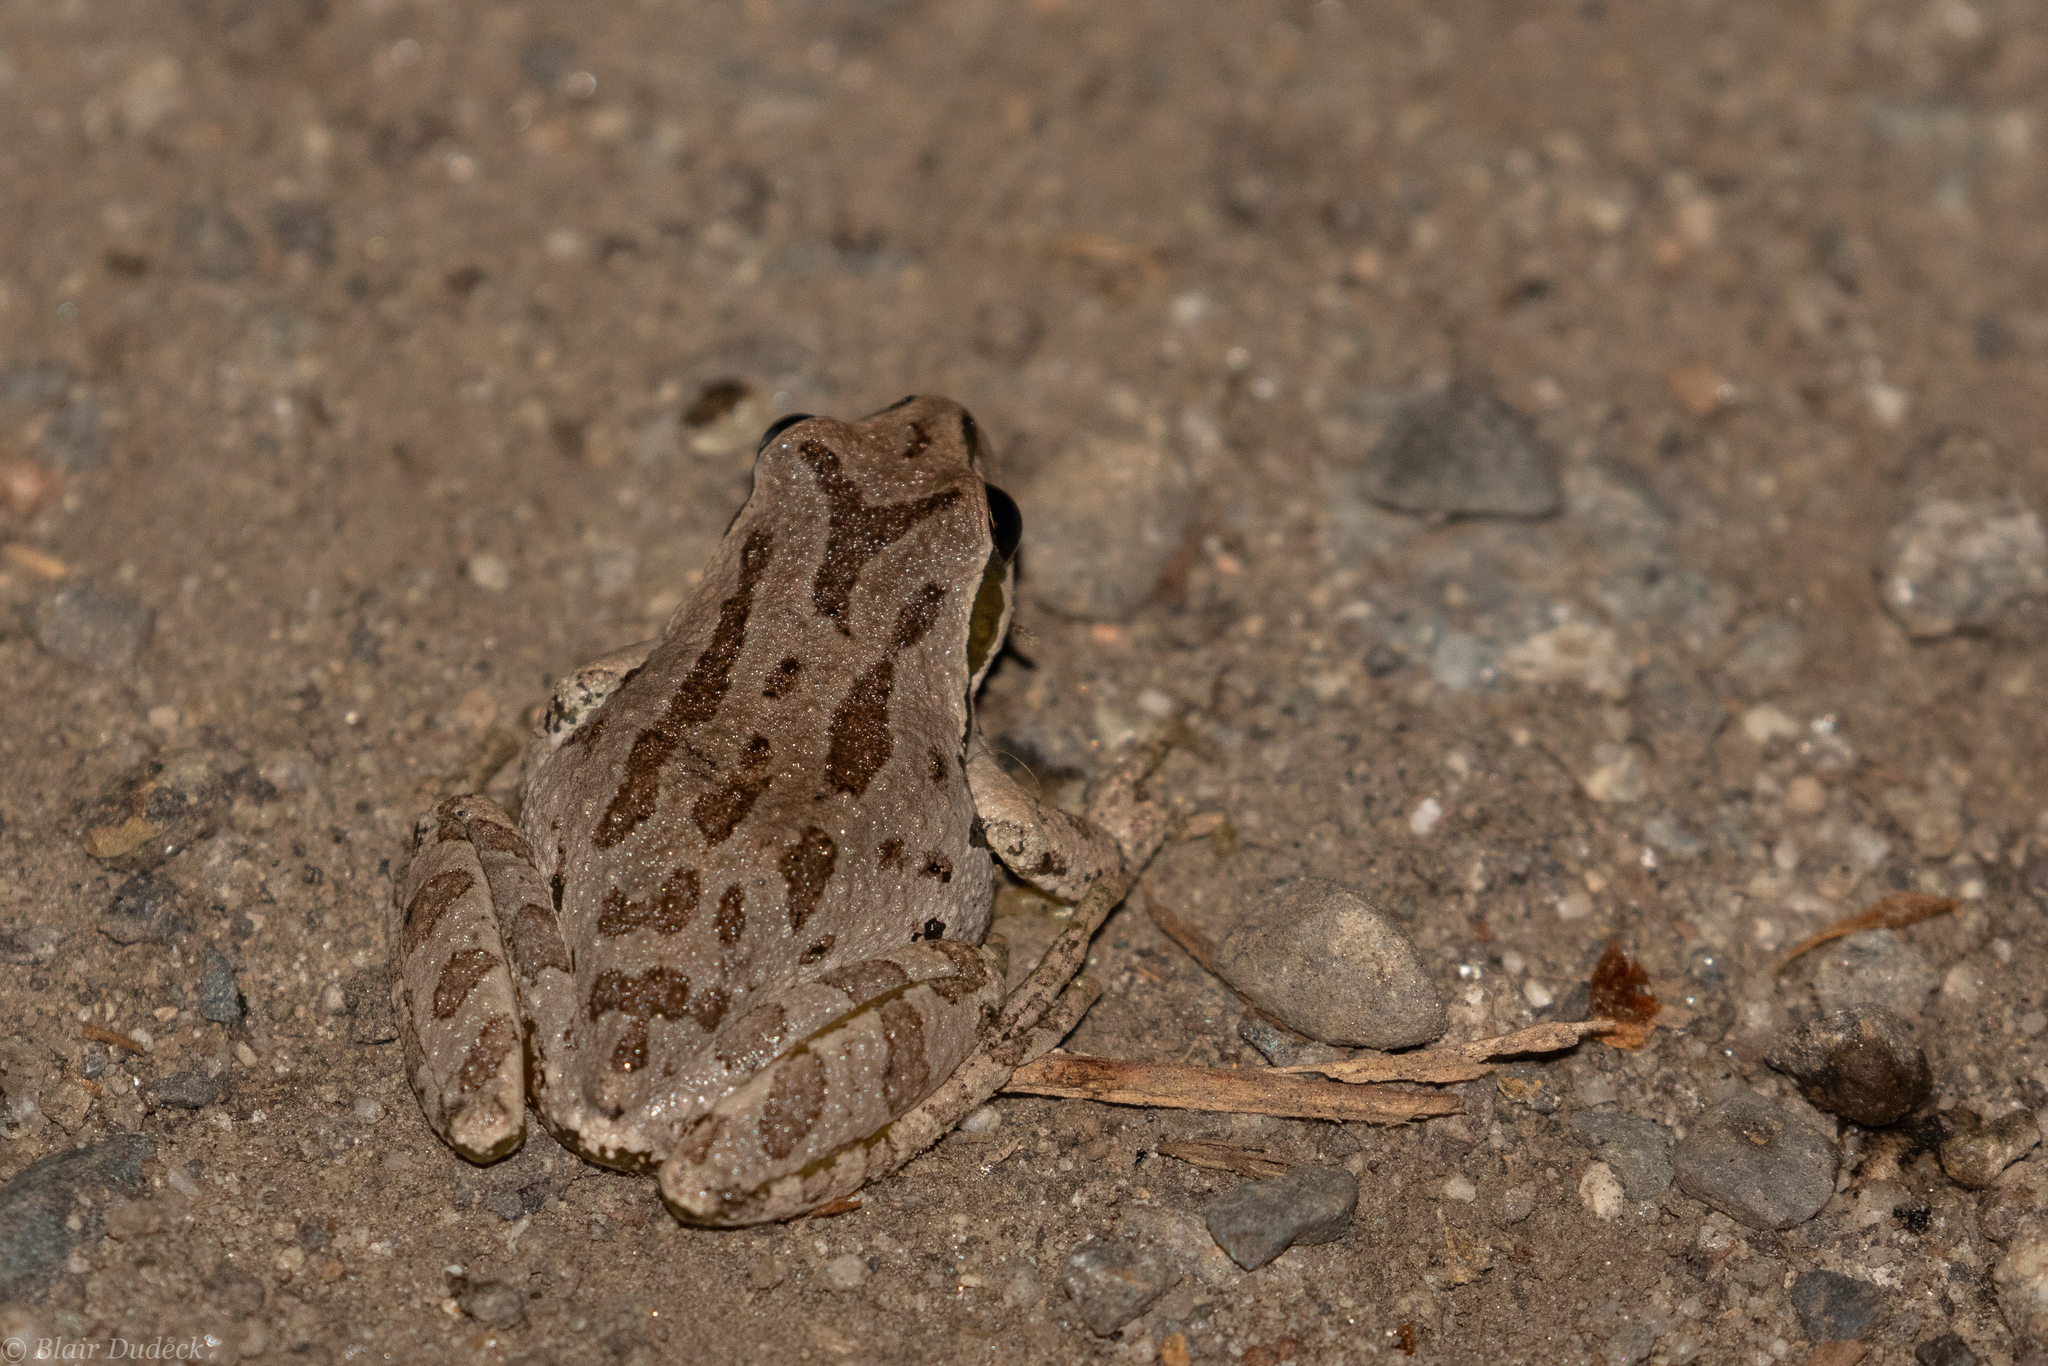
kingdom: Animalia
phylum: Chordata
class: Amphibia
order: Anura
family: Hylidae
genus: Pseudacris
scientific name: Pseudacris regilla
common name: Pacific chorus frog
